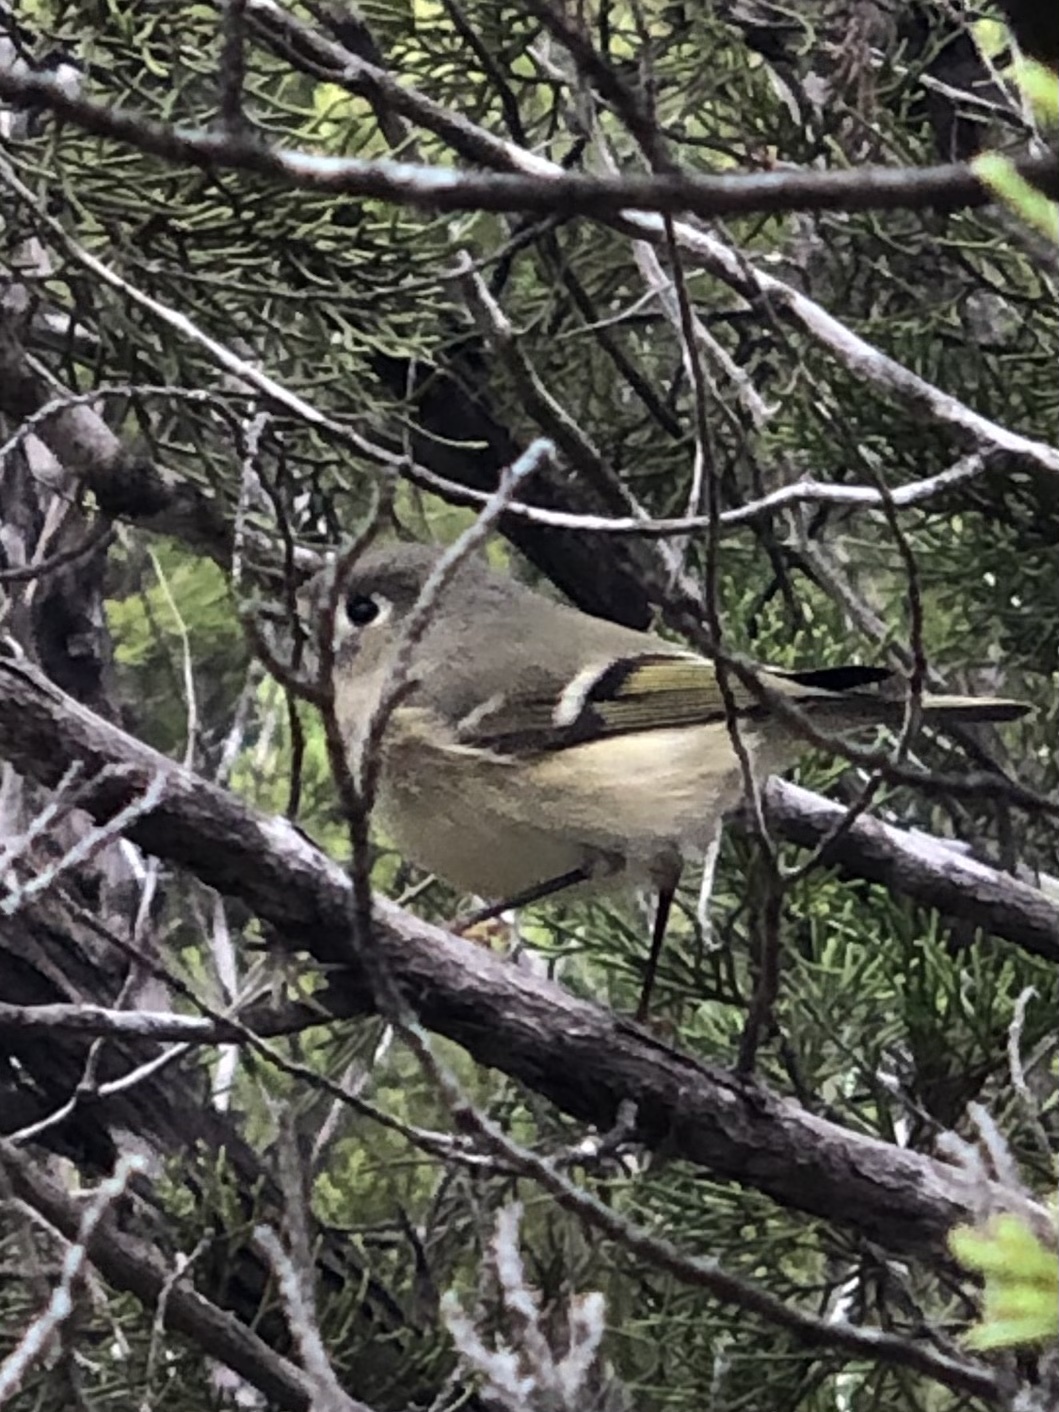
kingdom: Animalia
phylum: Chordata
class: Aves
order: Passeriformes
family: Regulidae
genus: Regulus
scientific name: Regulus calendula
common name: Ruby-crowned kinglet
